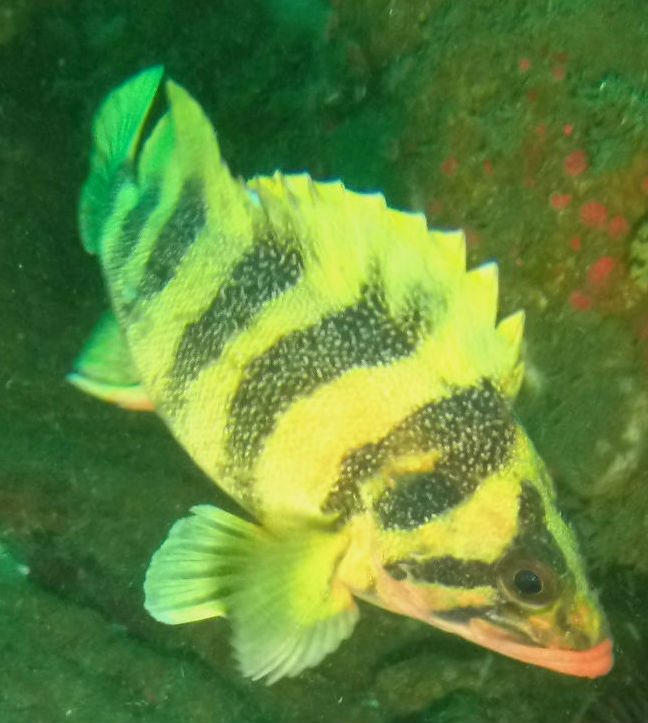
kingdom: Animalia
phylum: Chordata
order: Scorpaeniformes
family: Sebastidae
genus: Sebastes
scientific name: Sebastes serriceps
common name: Treefish
